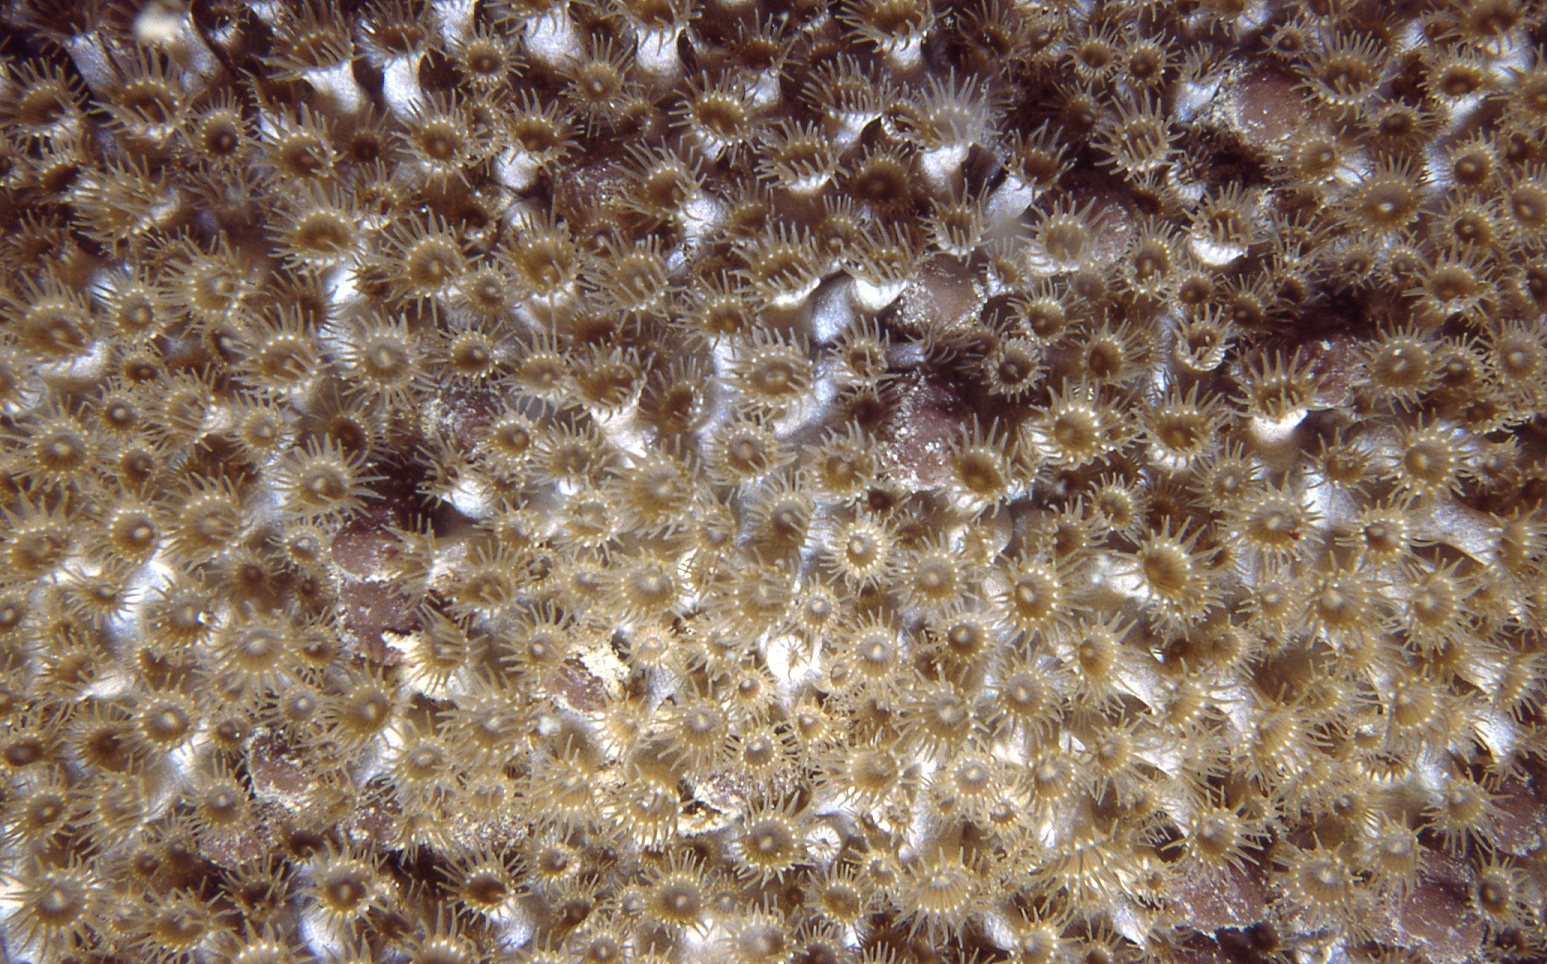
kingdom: Animalia
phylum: Cnidaria
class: Anthozoa
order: Zoantharia
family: Epizoanthidae
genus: Epizoanthus
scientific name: Epizoanthus sabulosus
